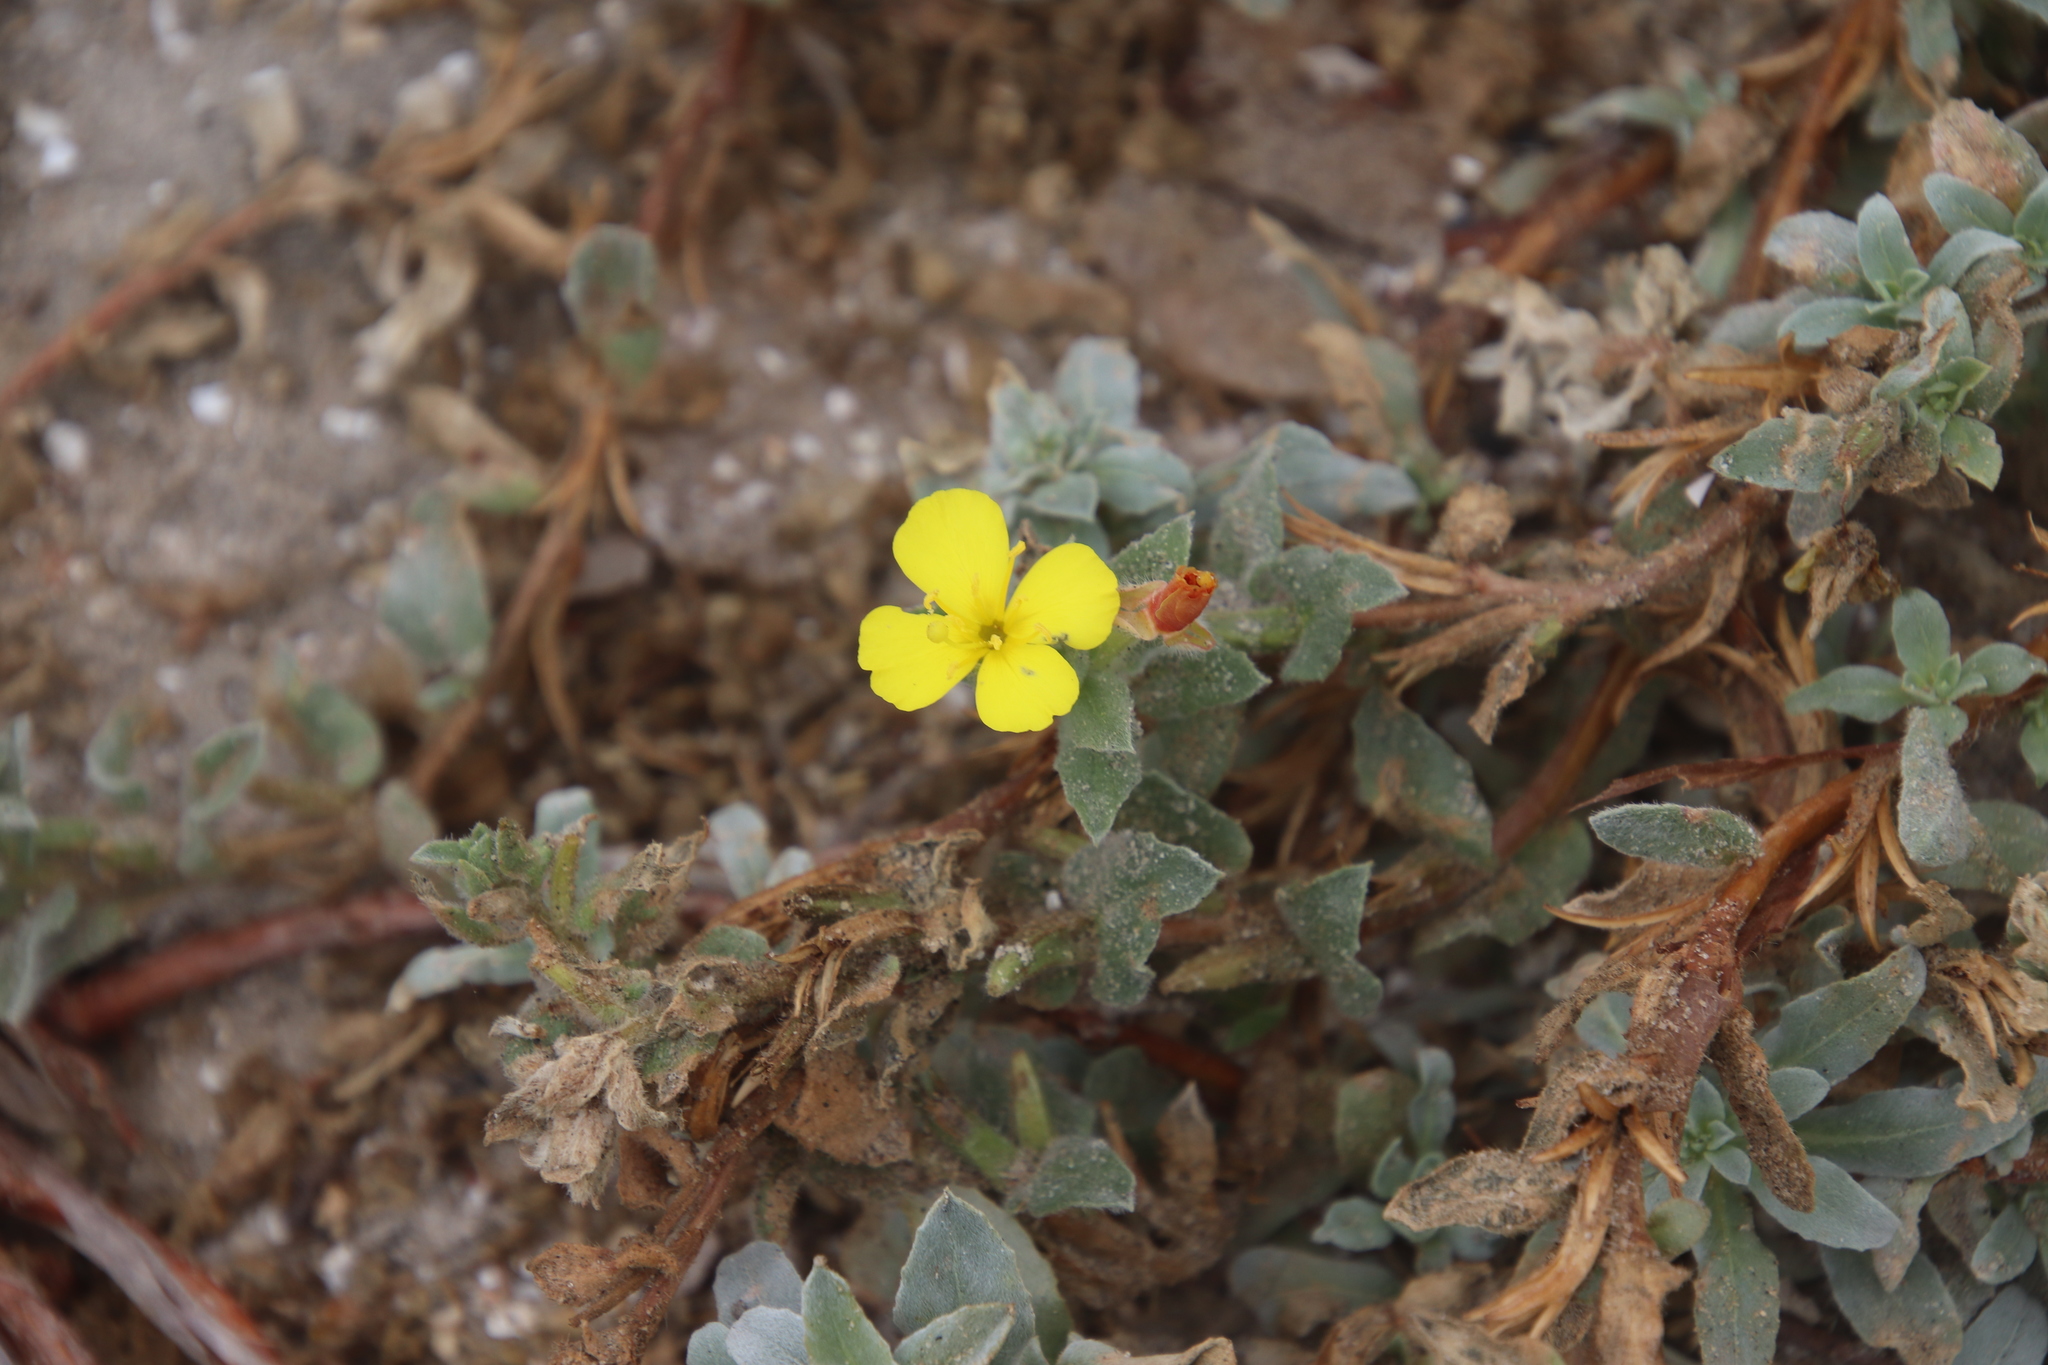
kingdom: Plantae
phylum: Tracheophyta
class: Magnoliopsida
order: Myrtales
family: Onagraceae
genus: Camissoniopsis
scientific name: Camissoniopsis cheiranthifolia
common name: Beach suncup
